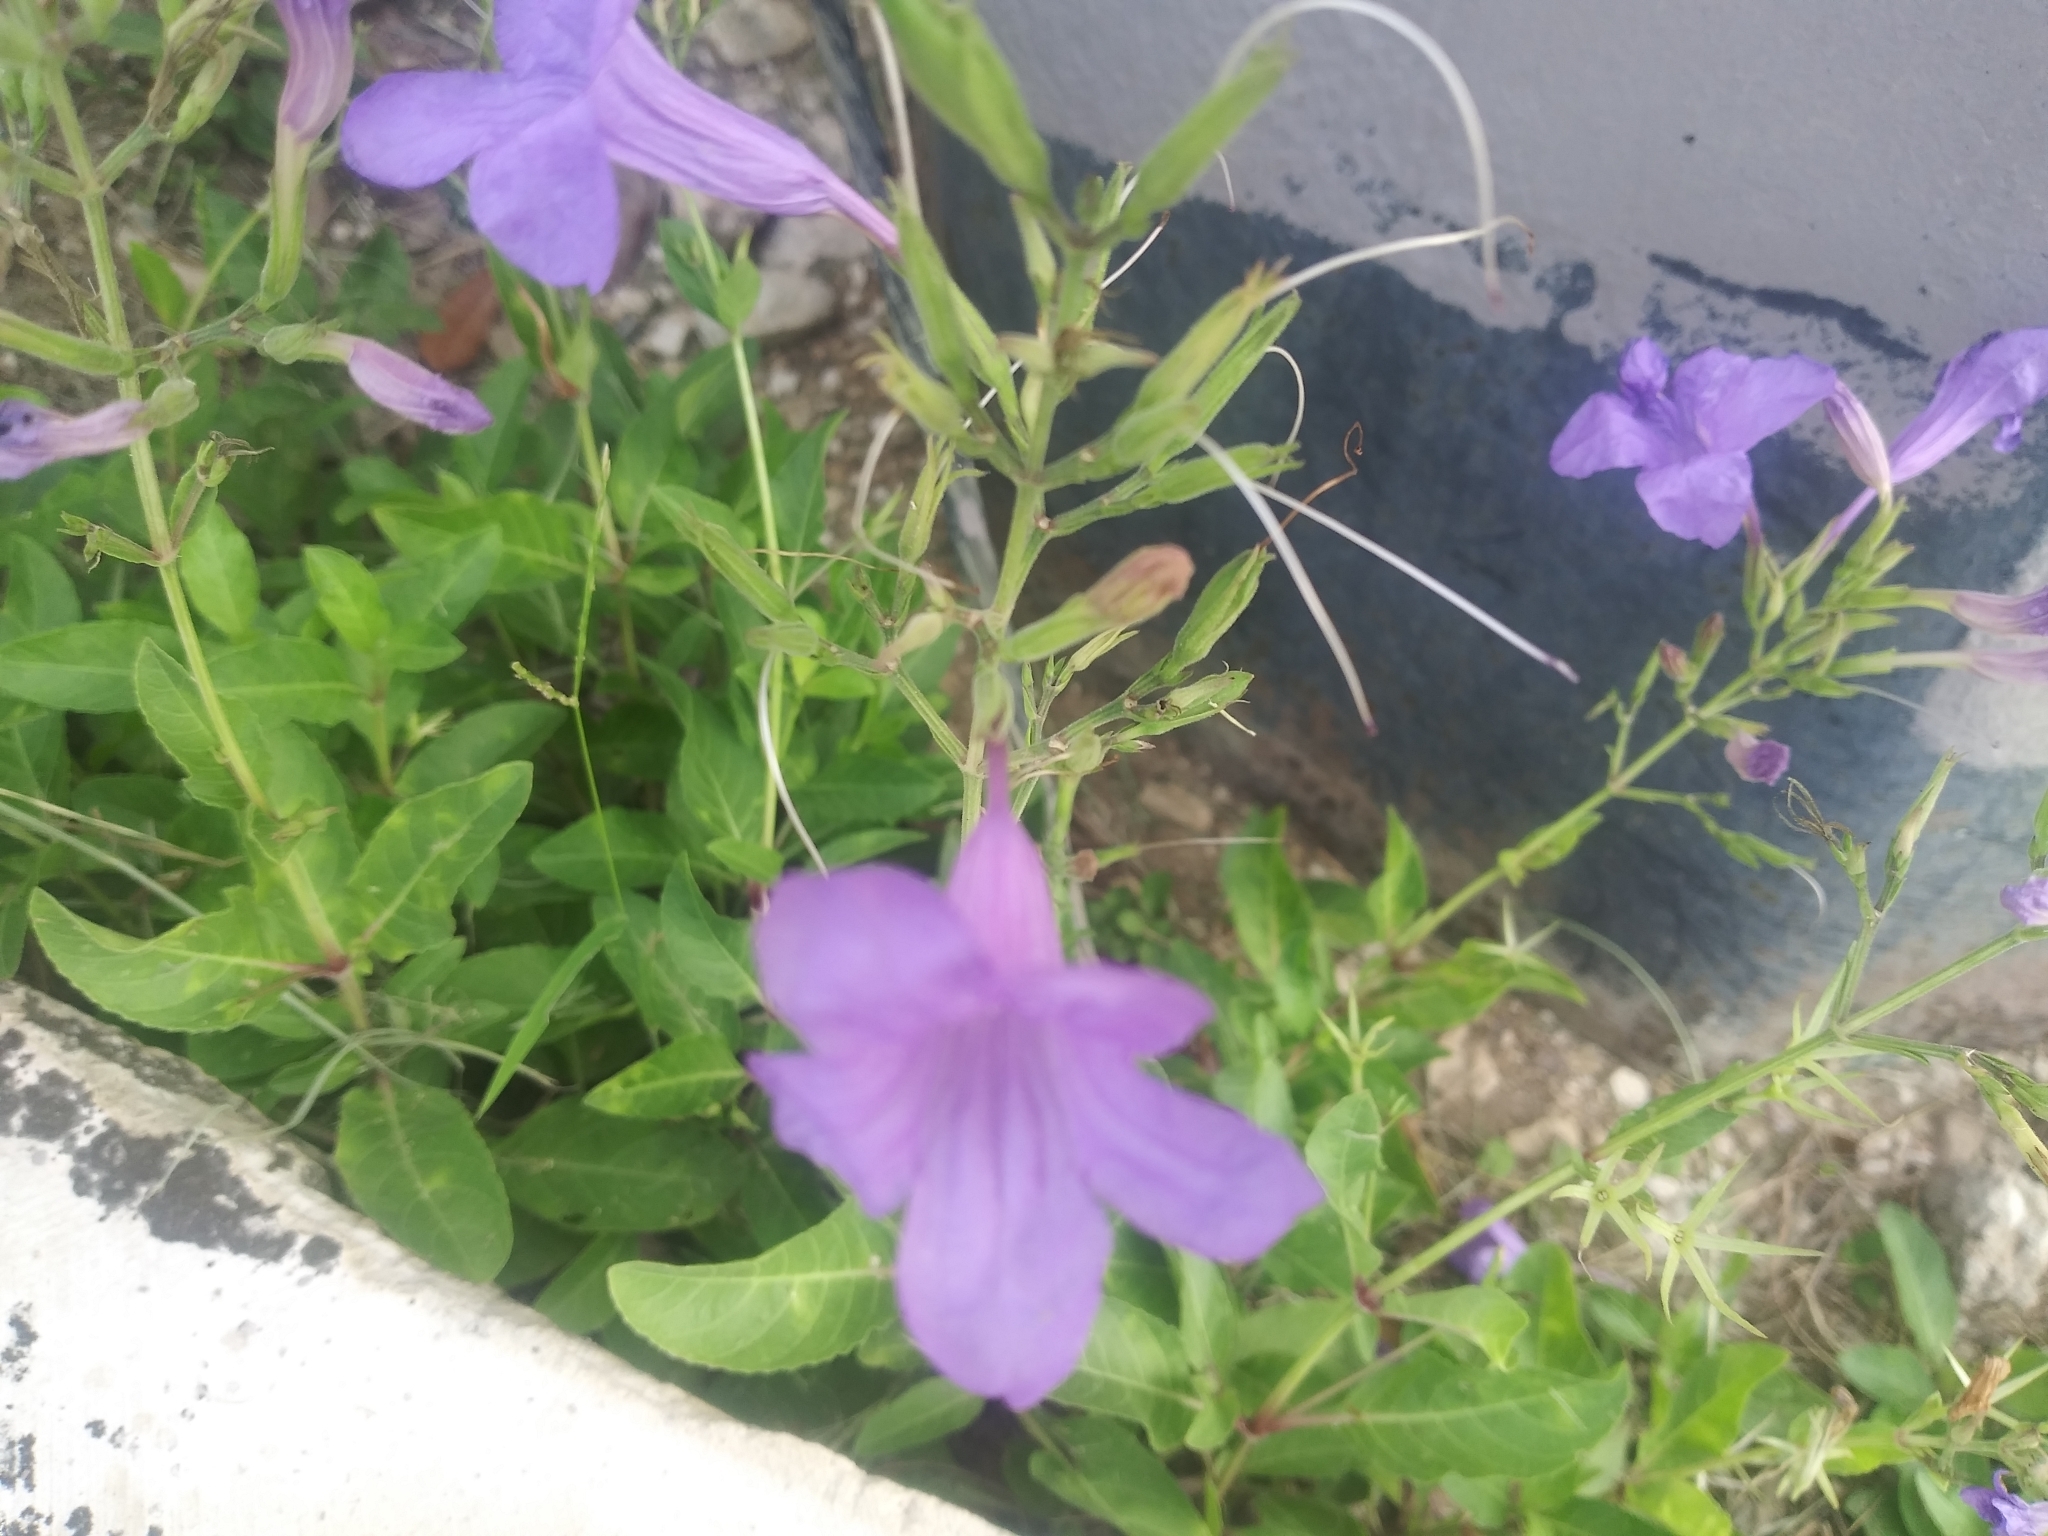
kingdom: Plantae
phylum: Tracheophyta
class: Magnoliopsida
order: Lamiales
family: Acanthaceae
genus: Ruellia
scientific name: Ruellia ciliatiflora
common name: Hairyflower wild petunia
